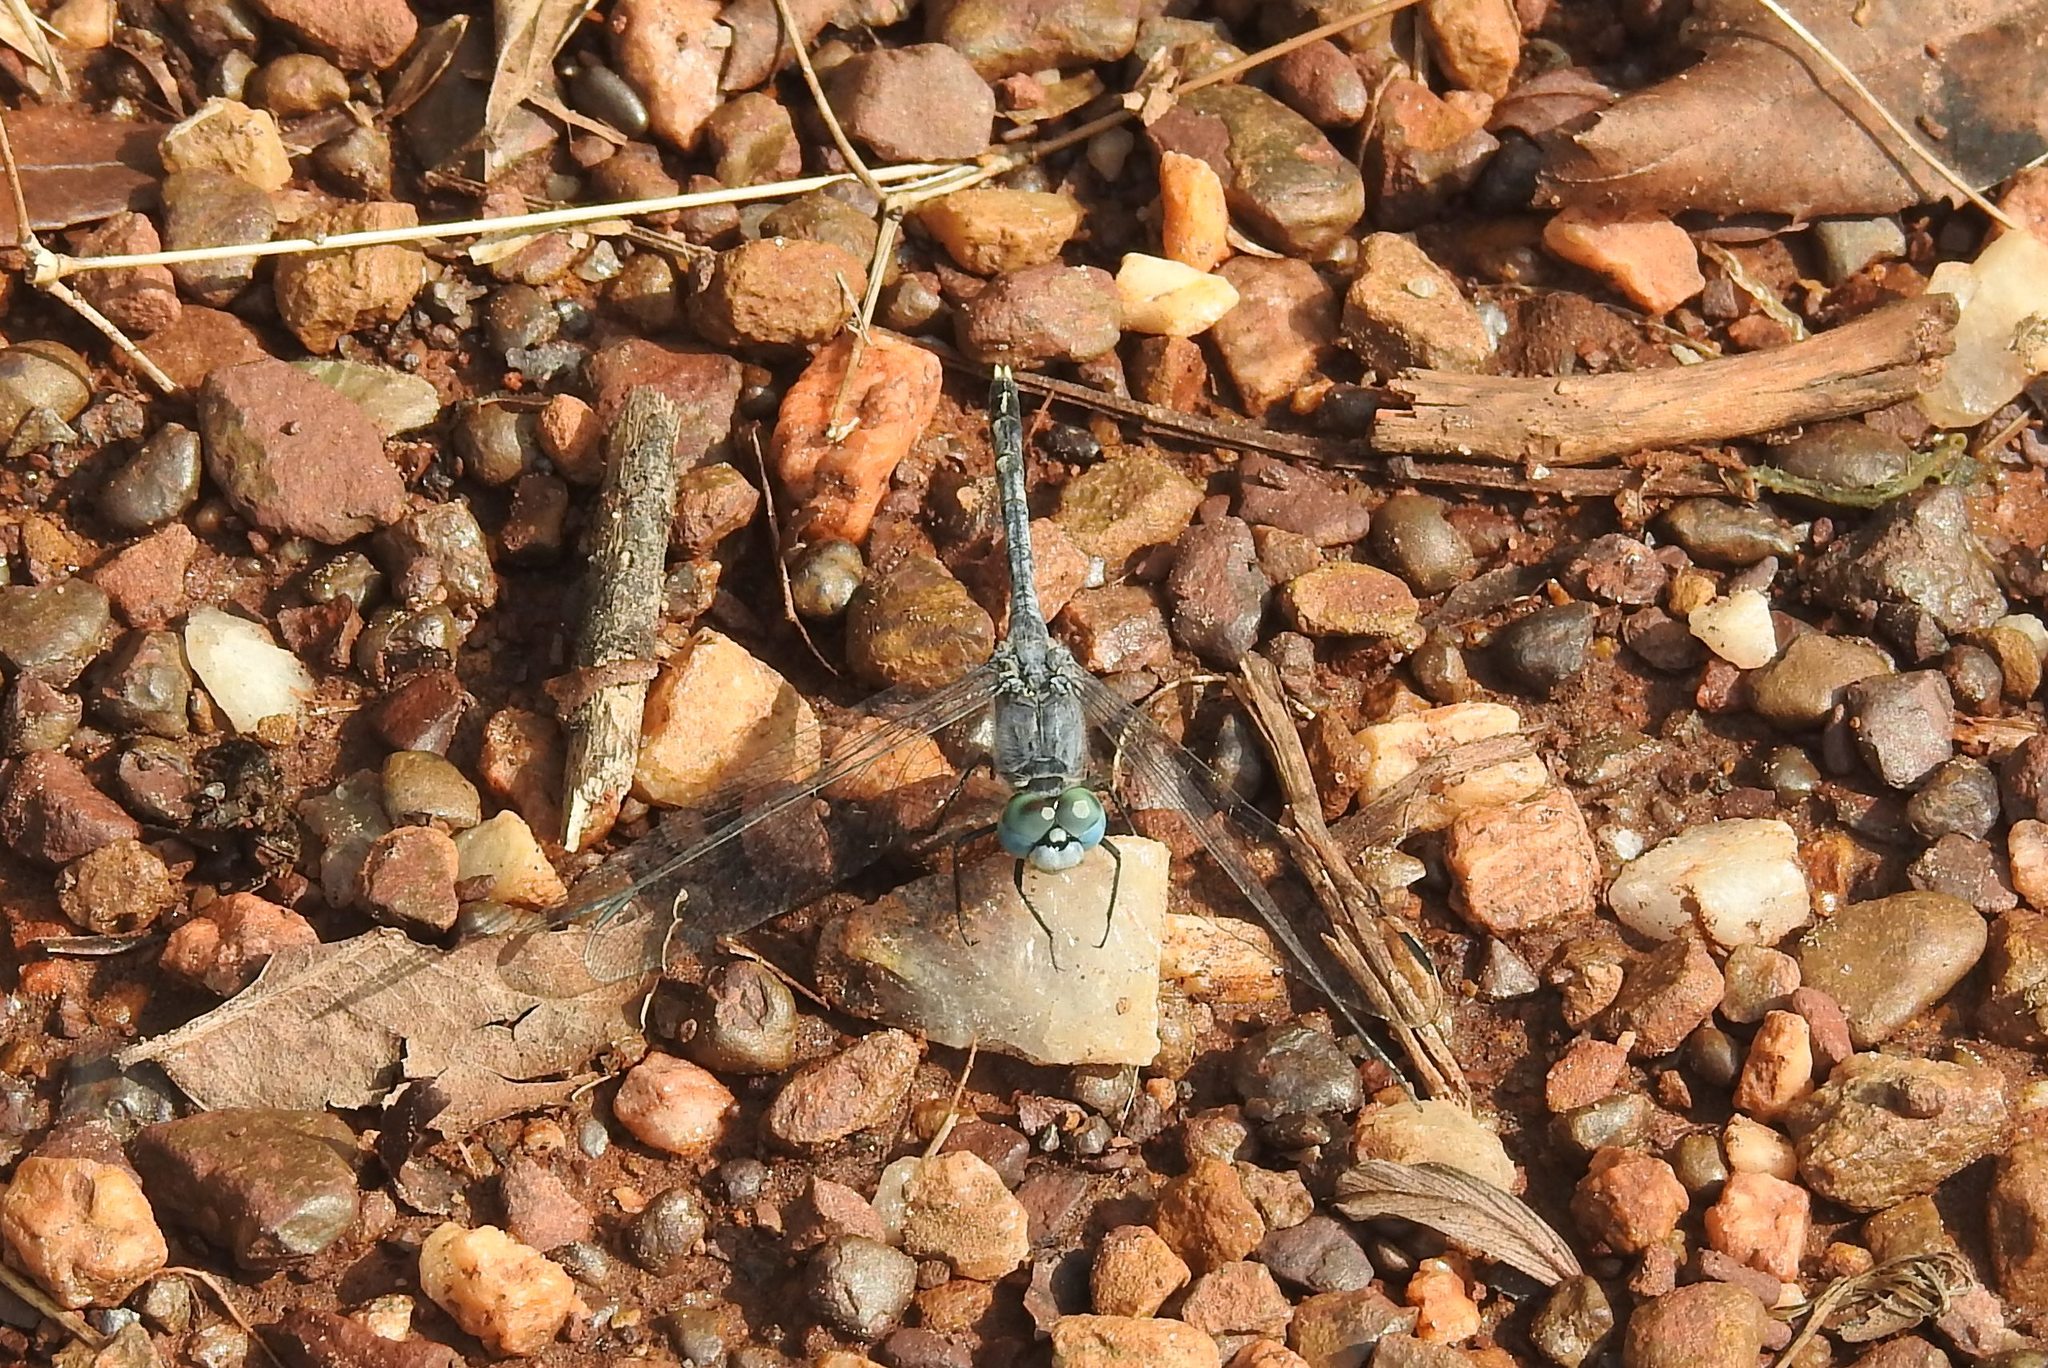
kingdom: Animalia
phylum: Arthropoda
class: Insecta
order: Odonata
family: Libellulidae
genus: Diplacodes
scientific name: Diplacodes trivialis
